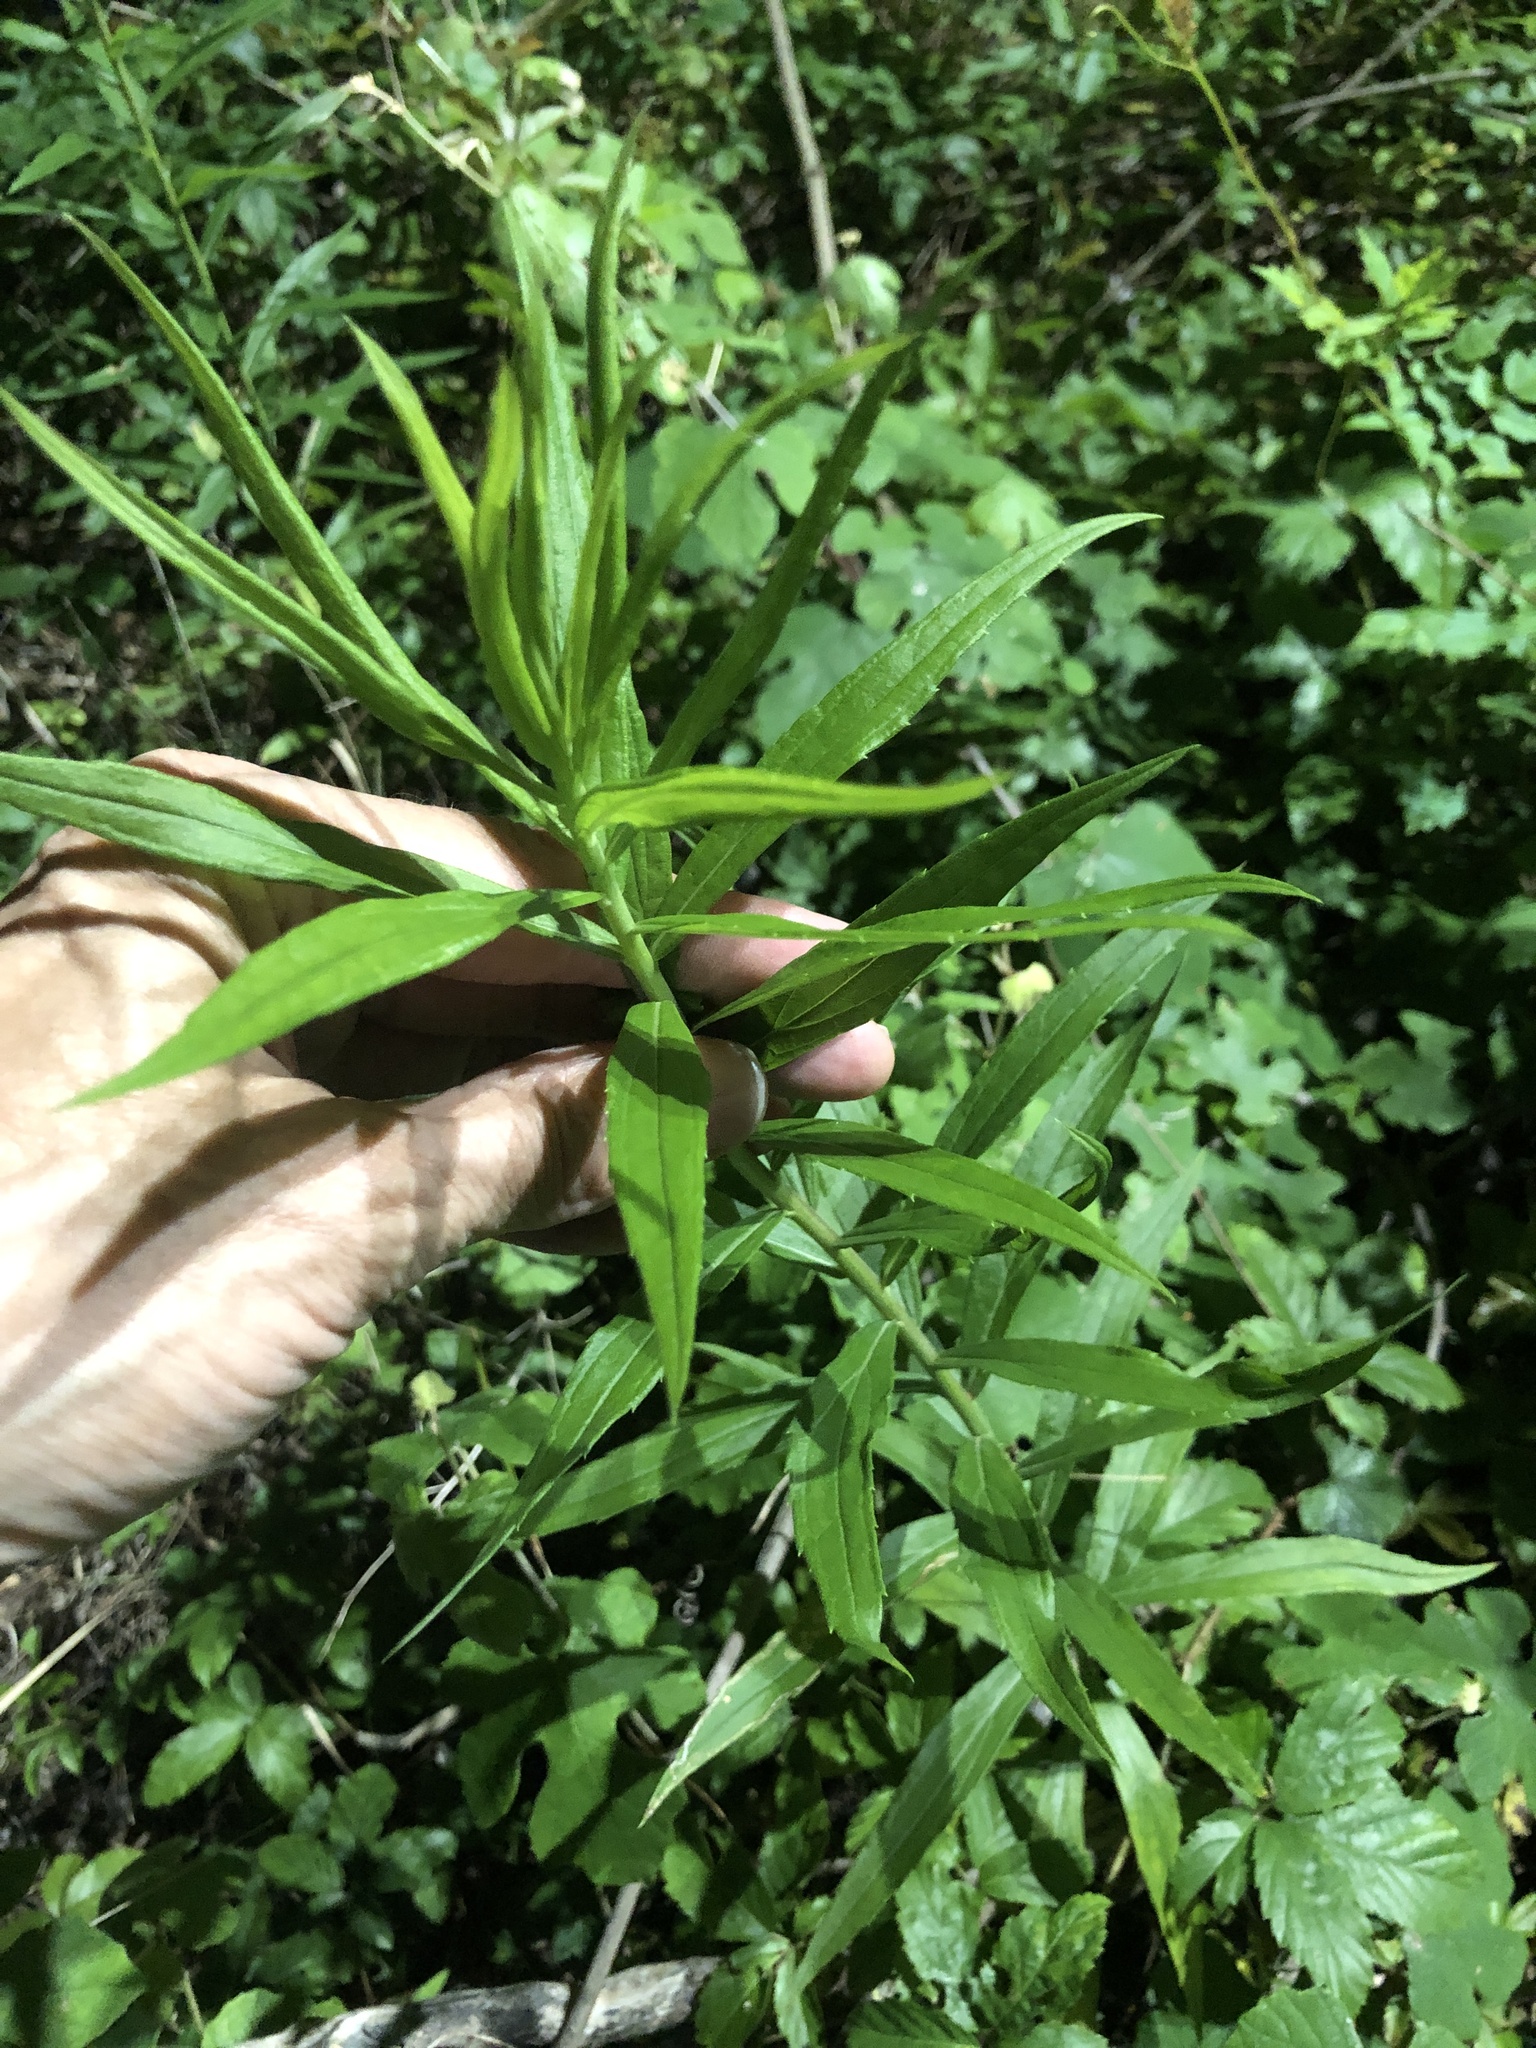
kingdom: Plantae
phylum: Tracheophyta
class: Magnoliopsida
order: Asterales
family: Asteraceae
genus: Solidago
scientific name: Solidago altissima
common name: Late goldenrod
